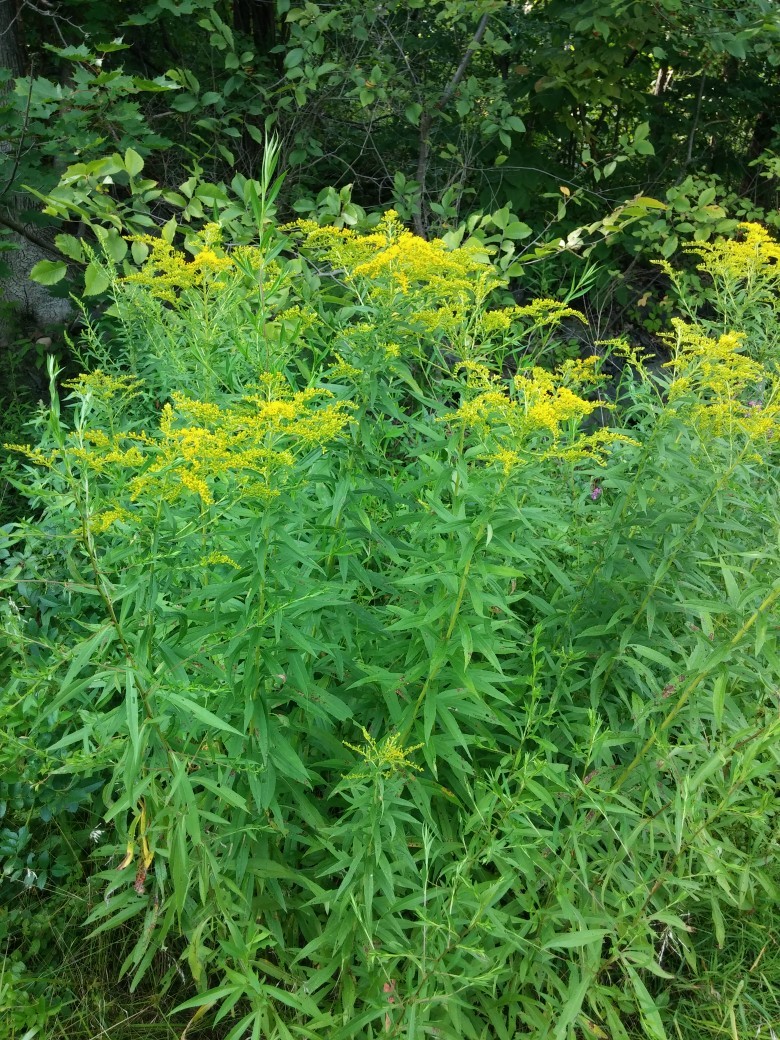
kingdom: Plantae
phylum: Tracheophyta
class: Magnoliopsida
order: Asterales
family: Asteraceae
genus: Solidago
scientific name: Solidago altissima
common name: Late goldenrod
